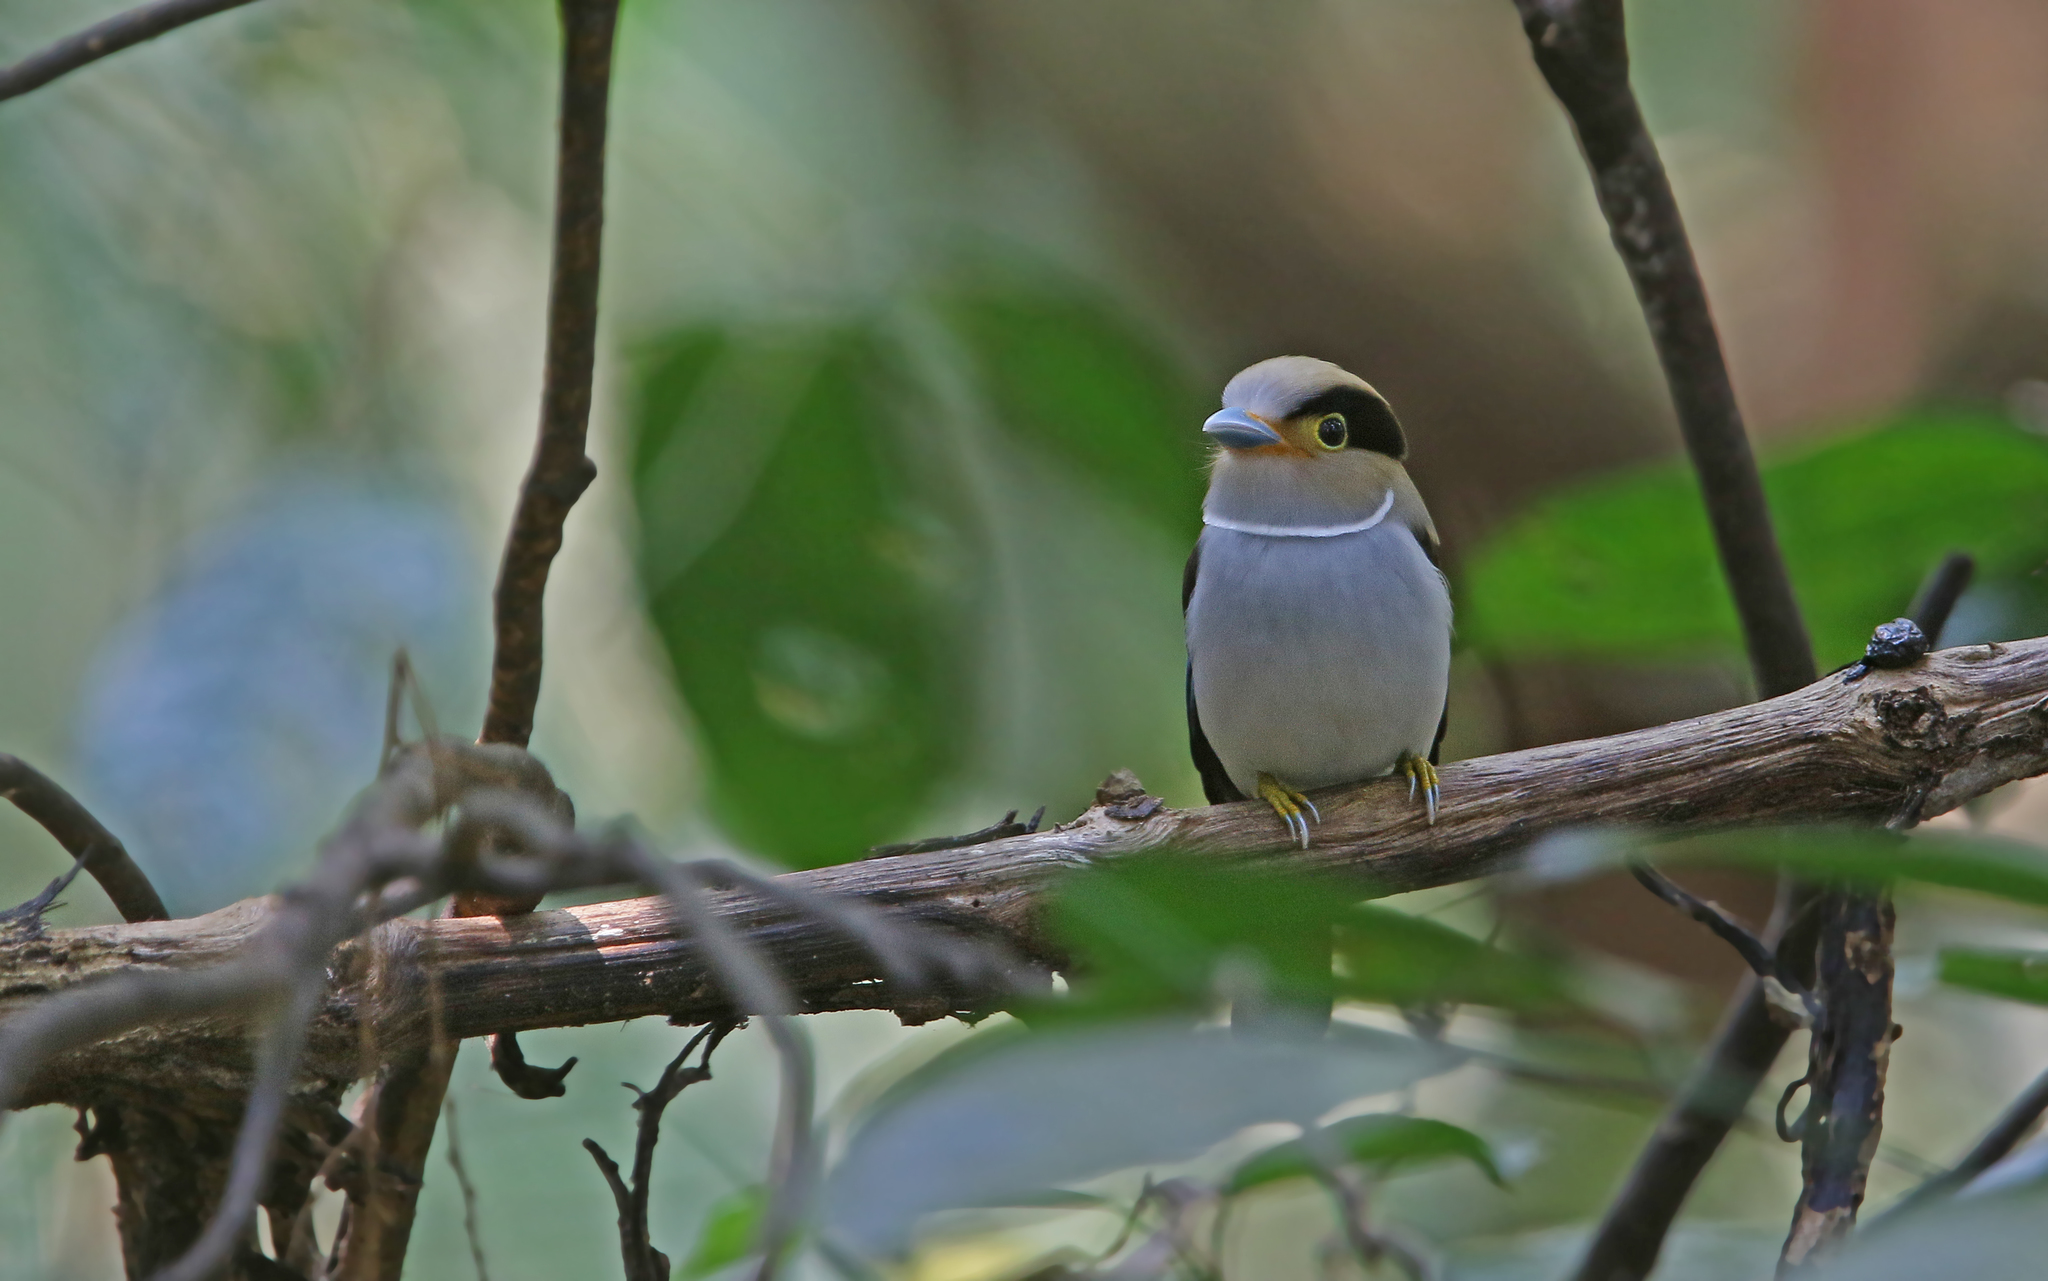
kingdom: Animalia
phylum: Chordata
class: Aves
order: Passeriformes
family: Eurylaimidae
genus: Serilophus
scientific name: Serilophus lunatus
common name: Silver-breasted broadbill
